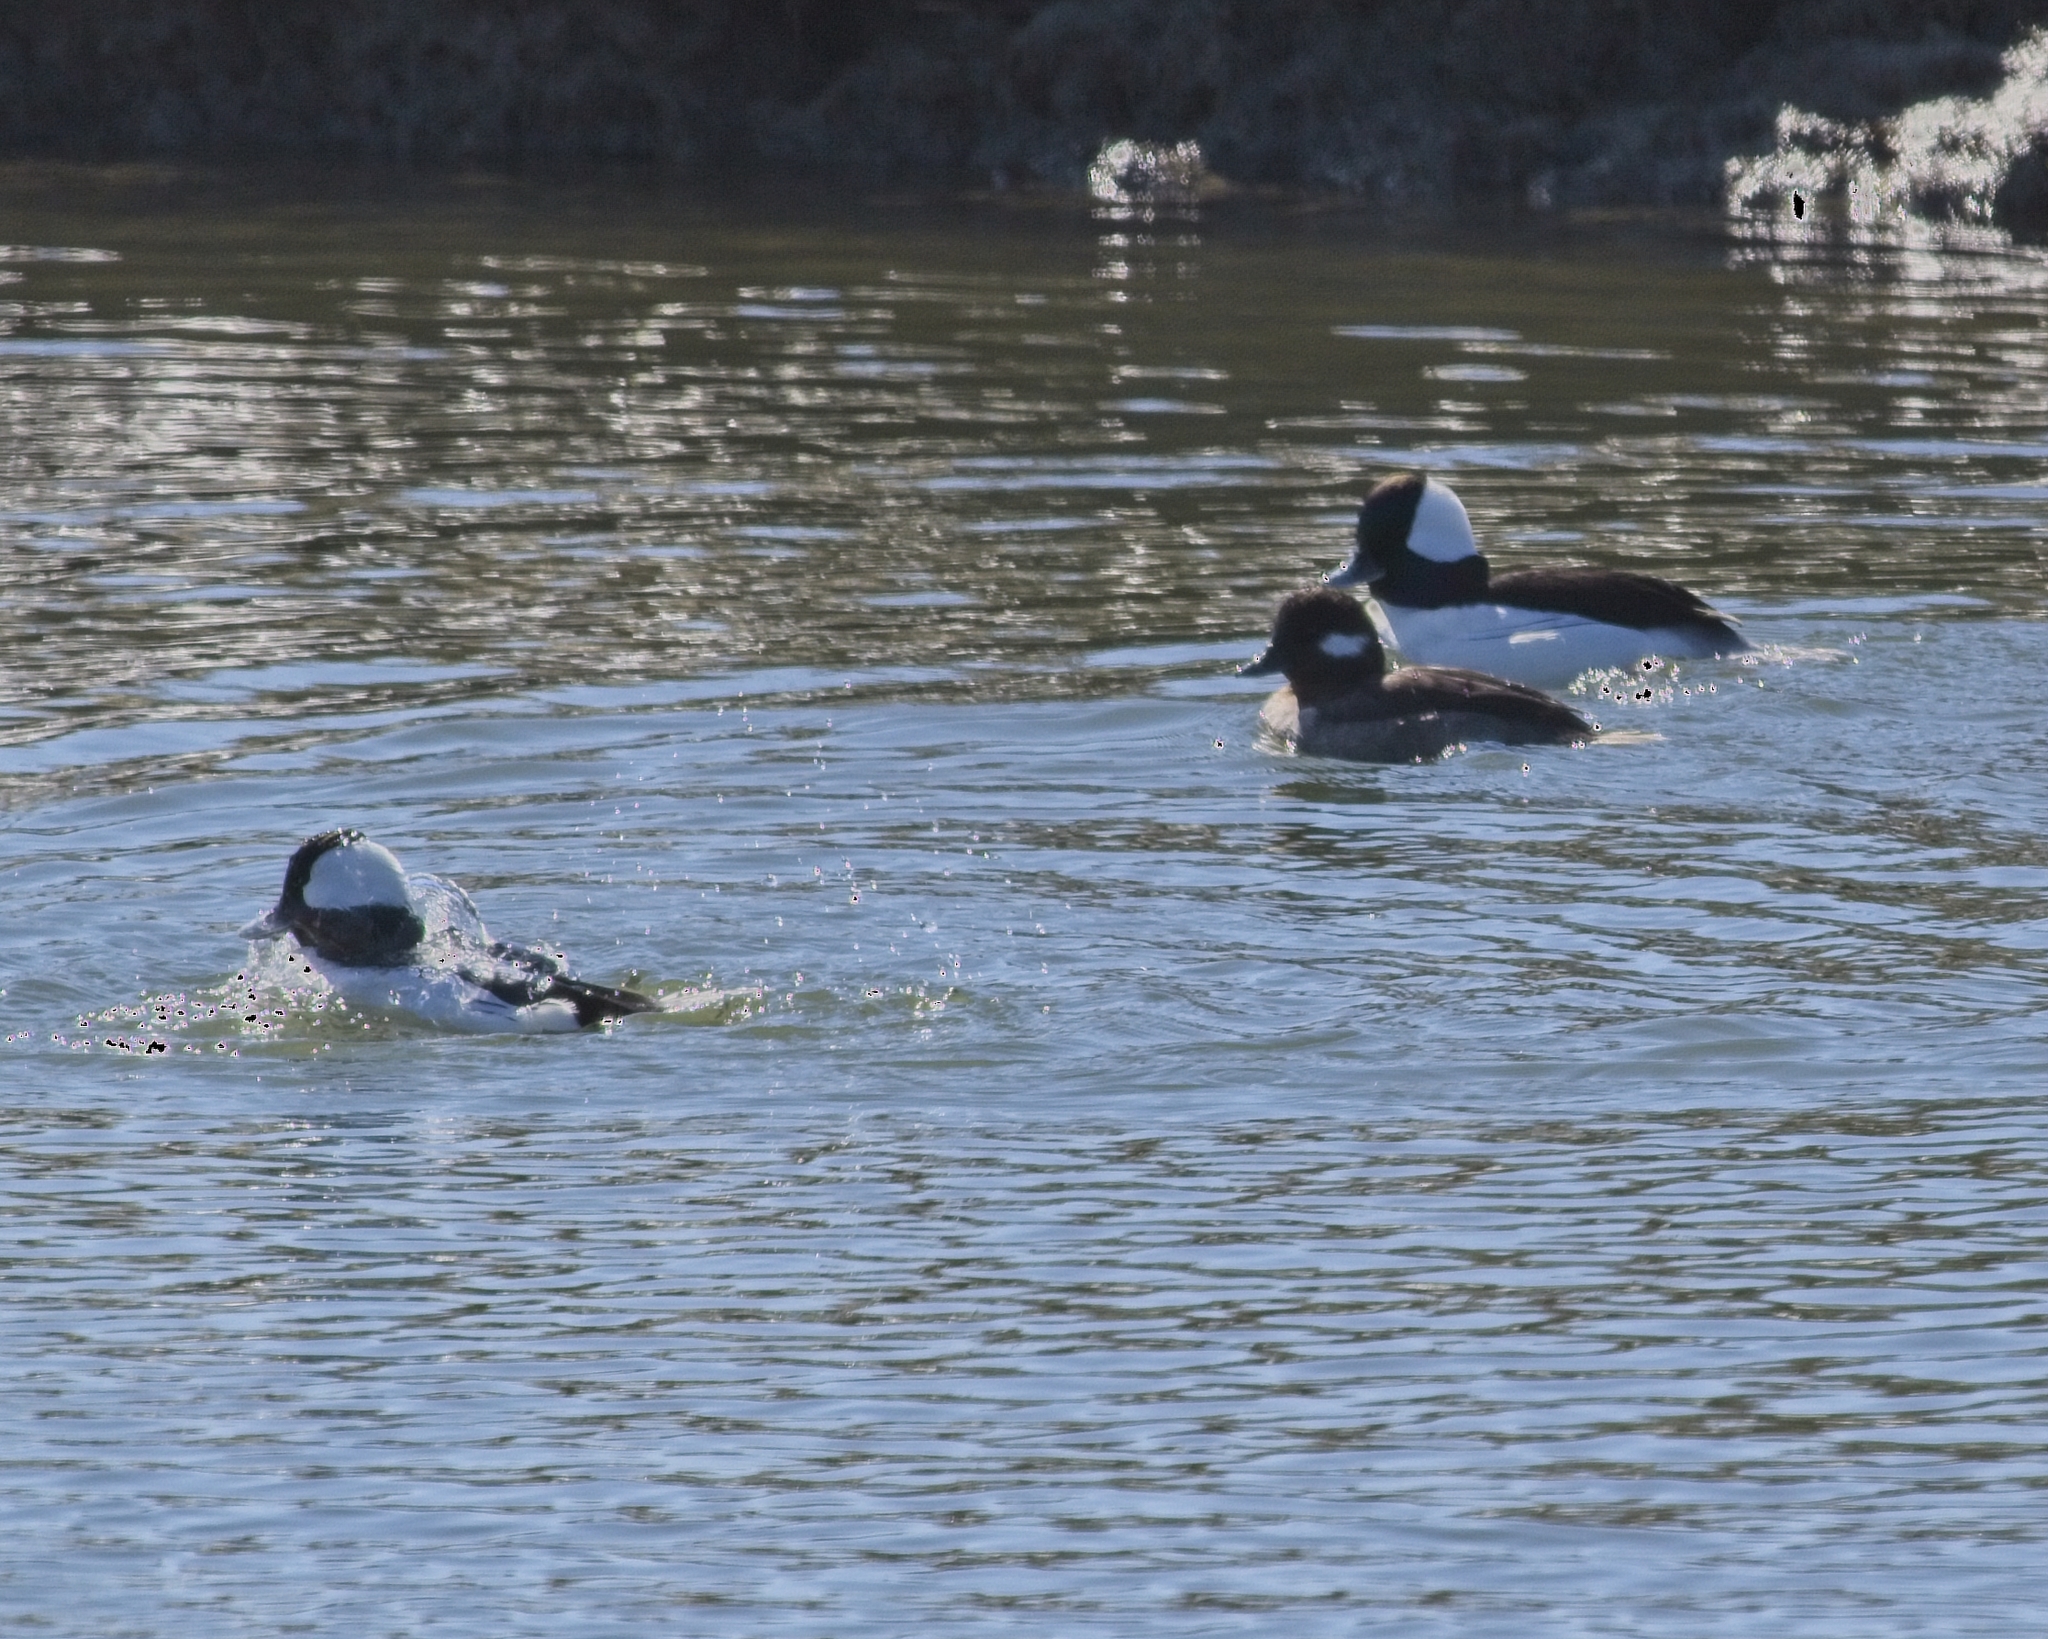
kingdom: Animalia
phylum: Chordata
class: Aves
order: Anseriformes
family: Anatidae
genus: Bucephala
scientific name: Bucephala albeola
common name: Bufflehead
